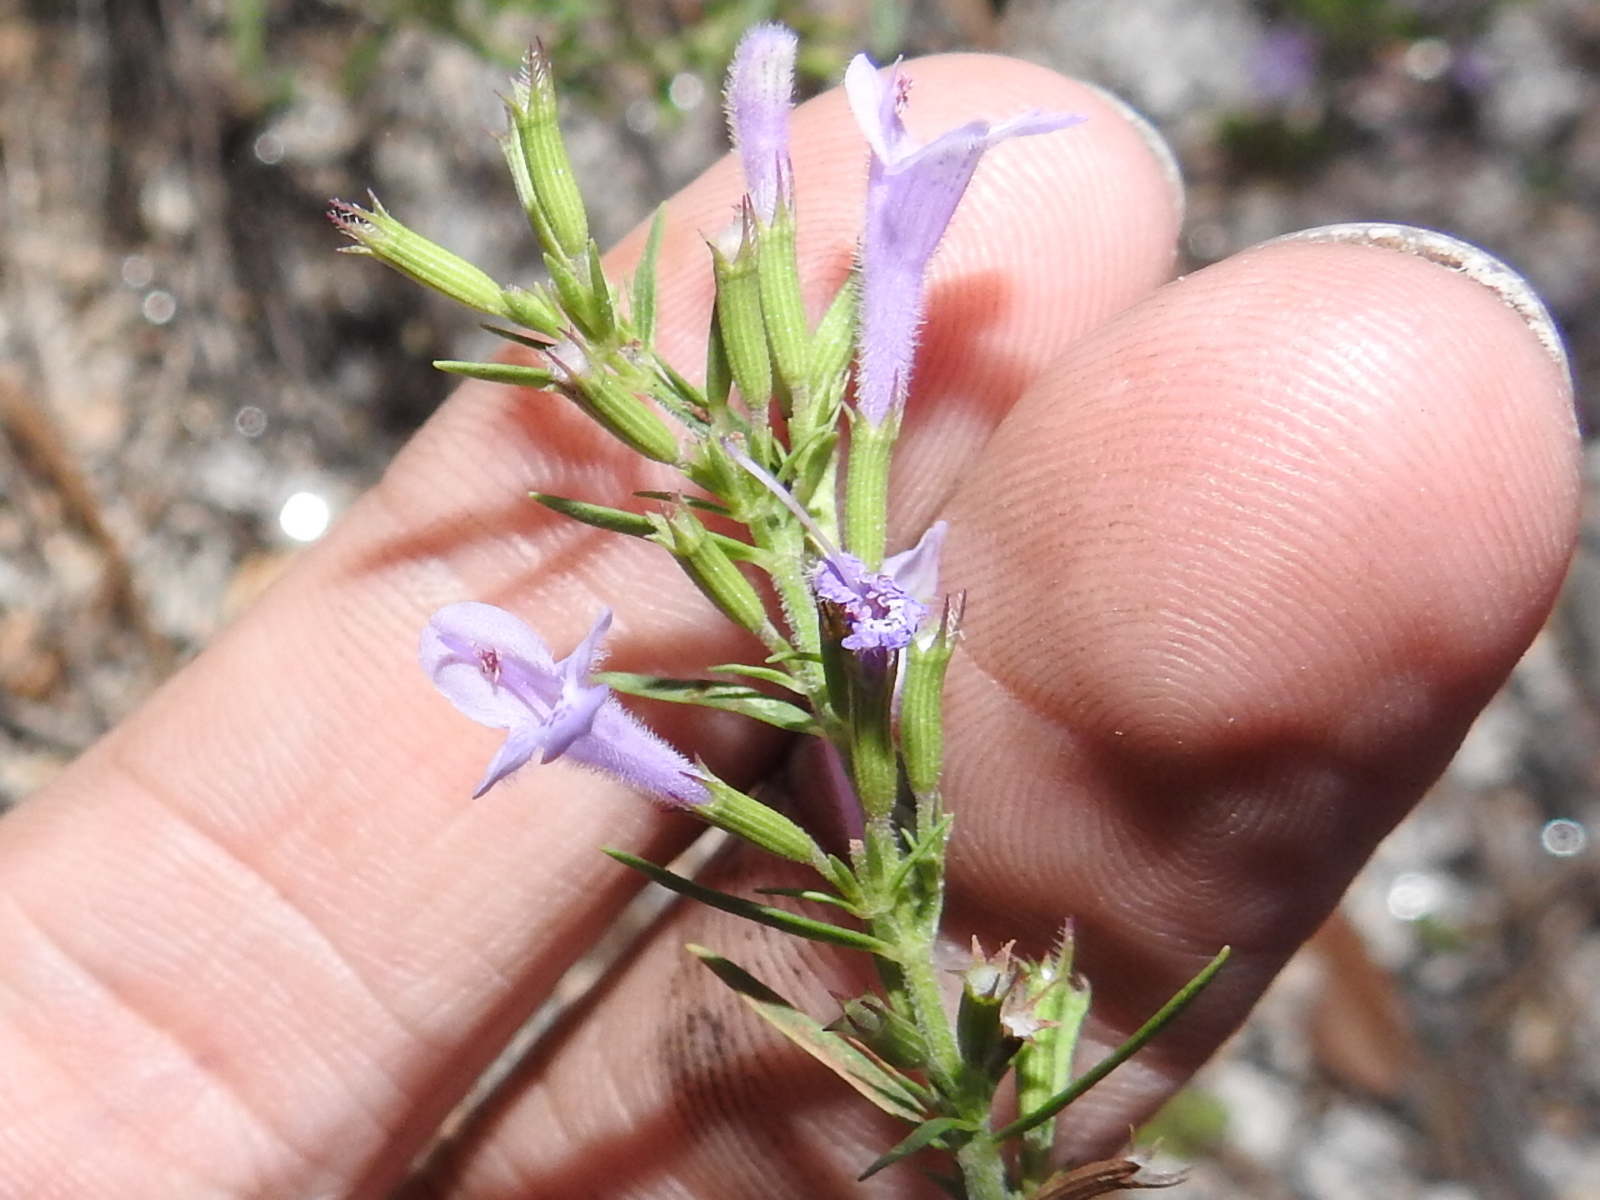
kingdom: Plantae
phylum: Tracheophyta
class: Magnoliopsida
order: Lamiales
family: Lamiaceae
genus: Hedeoma
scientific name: Hedeoma hyssopifolia
